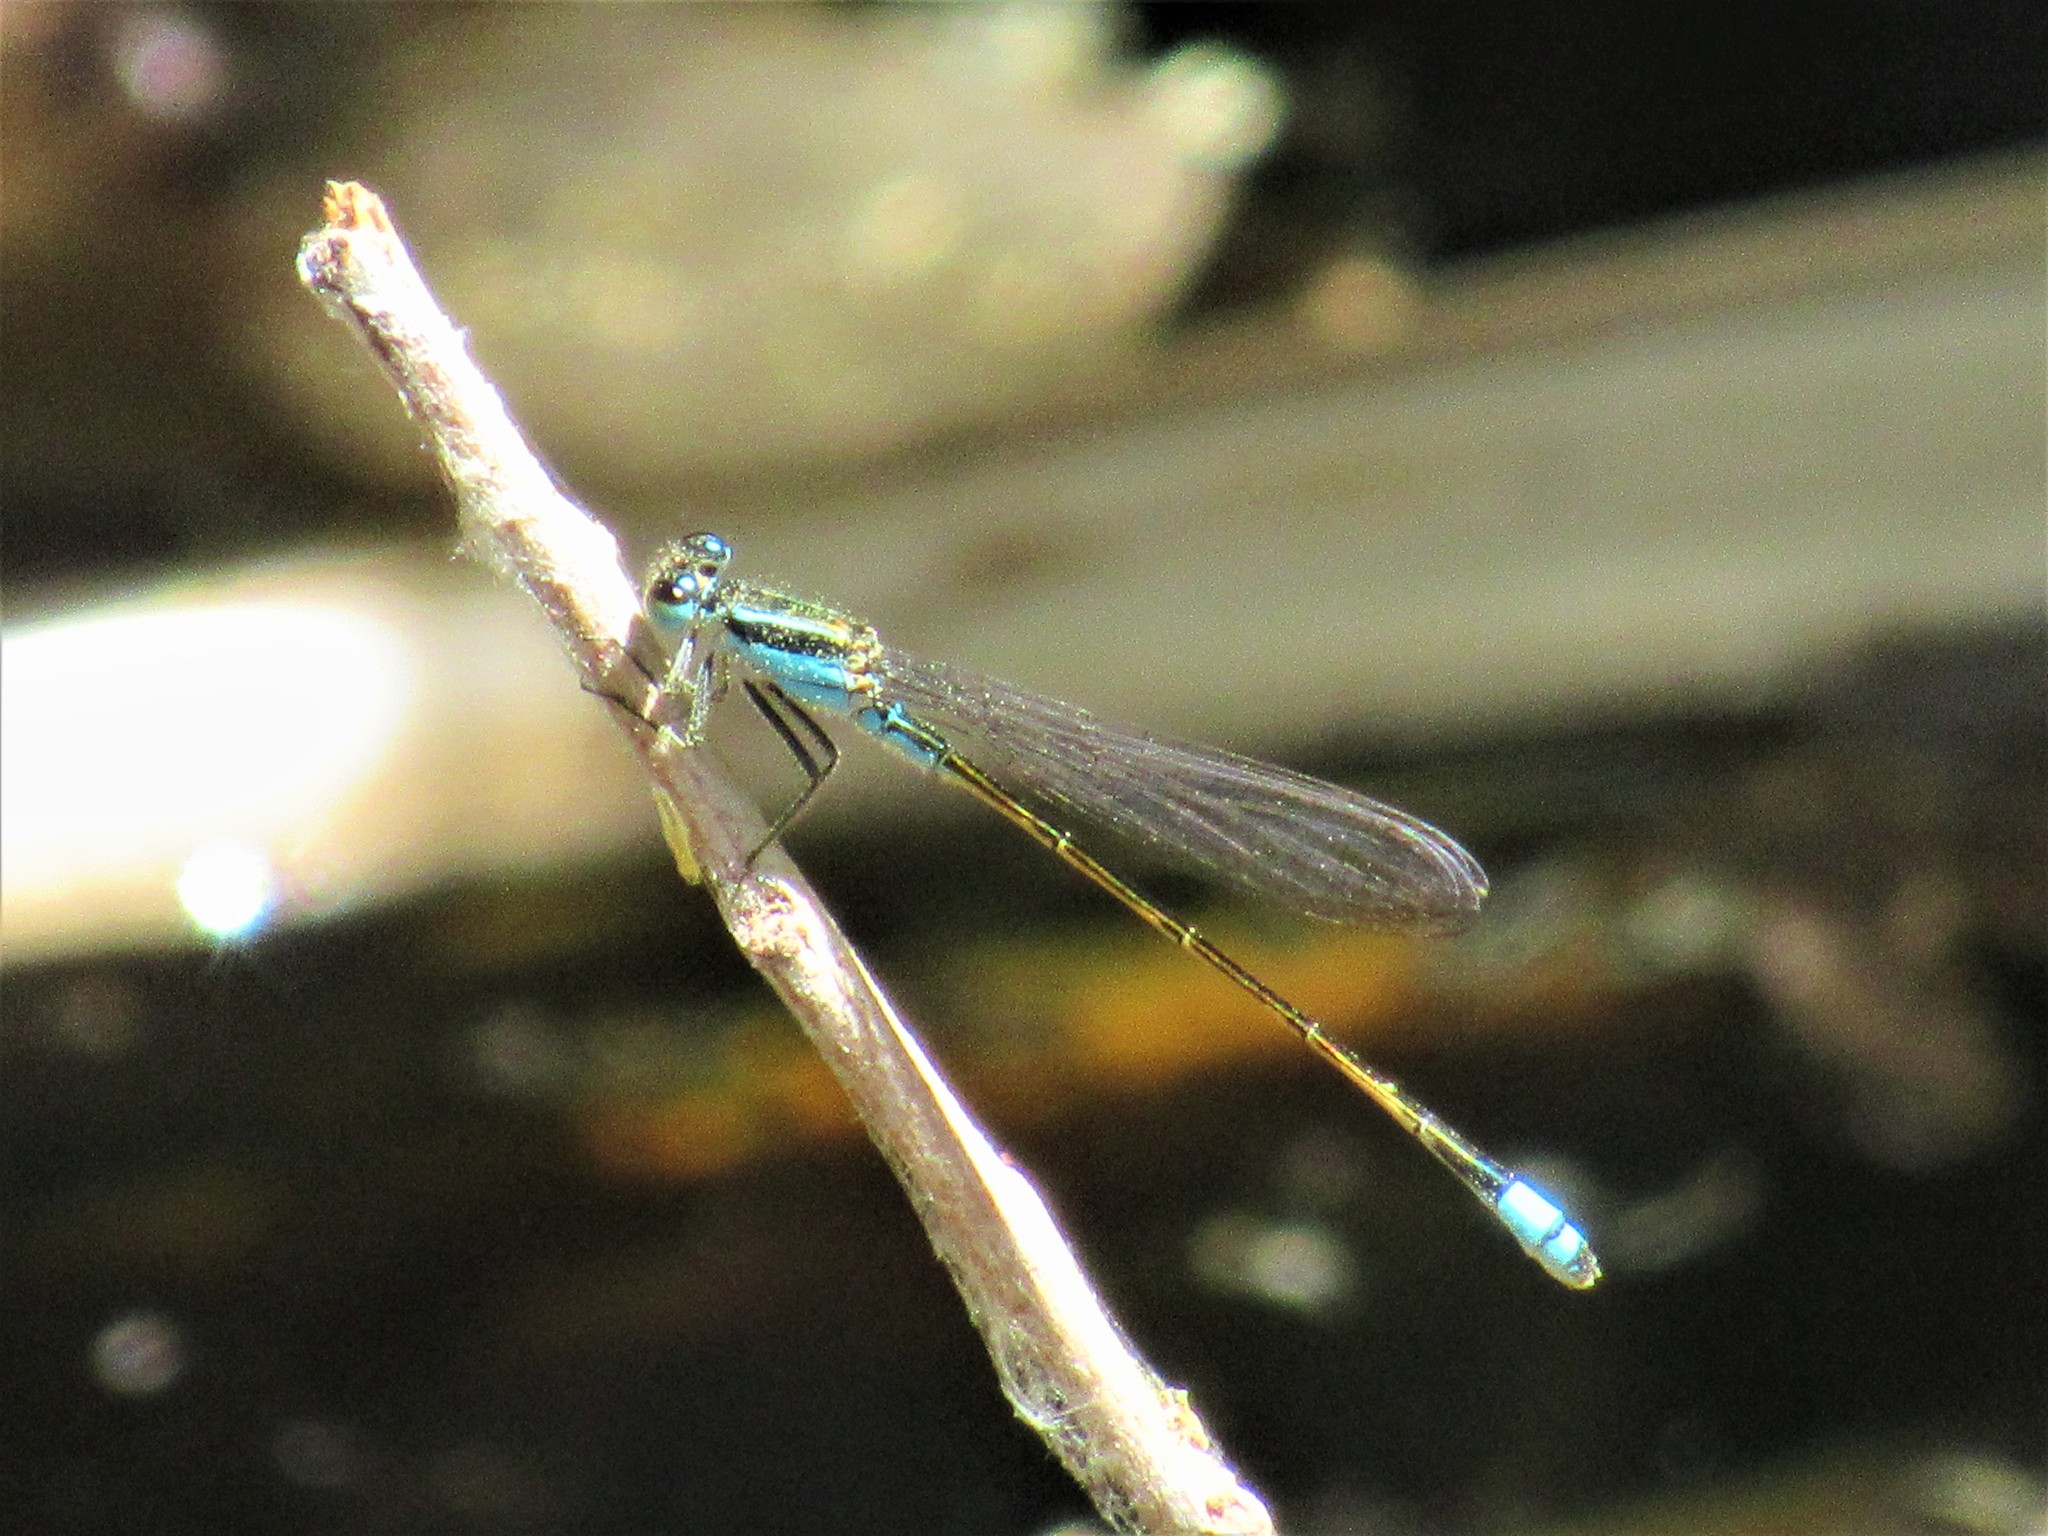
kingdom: Animalia
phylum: Arthropoda
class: Insecta
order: Odonata
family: Coenagrionidae
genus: Ischnura
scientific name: Ischnura ramburii
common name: Rambur's forktail
